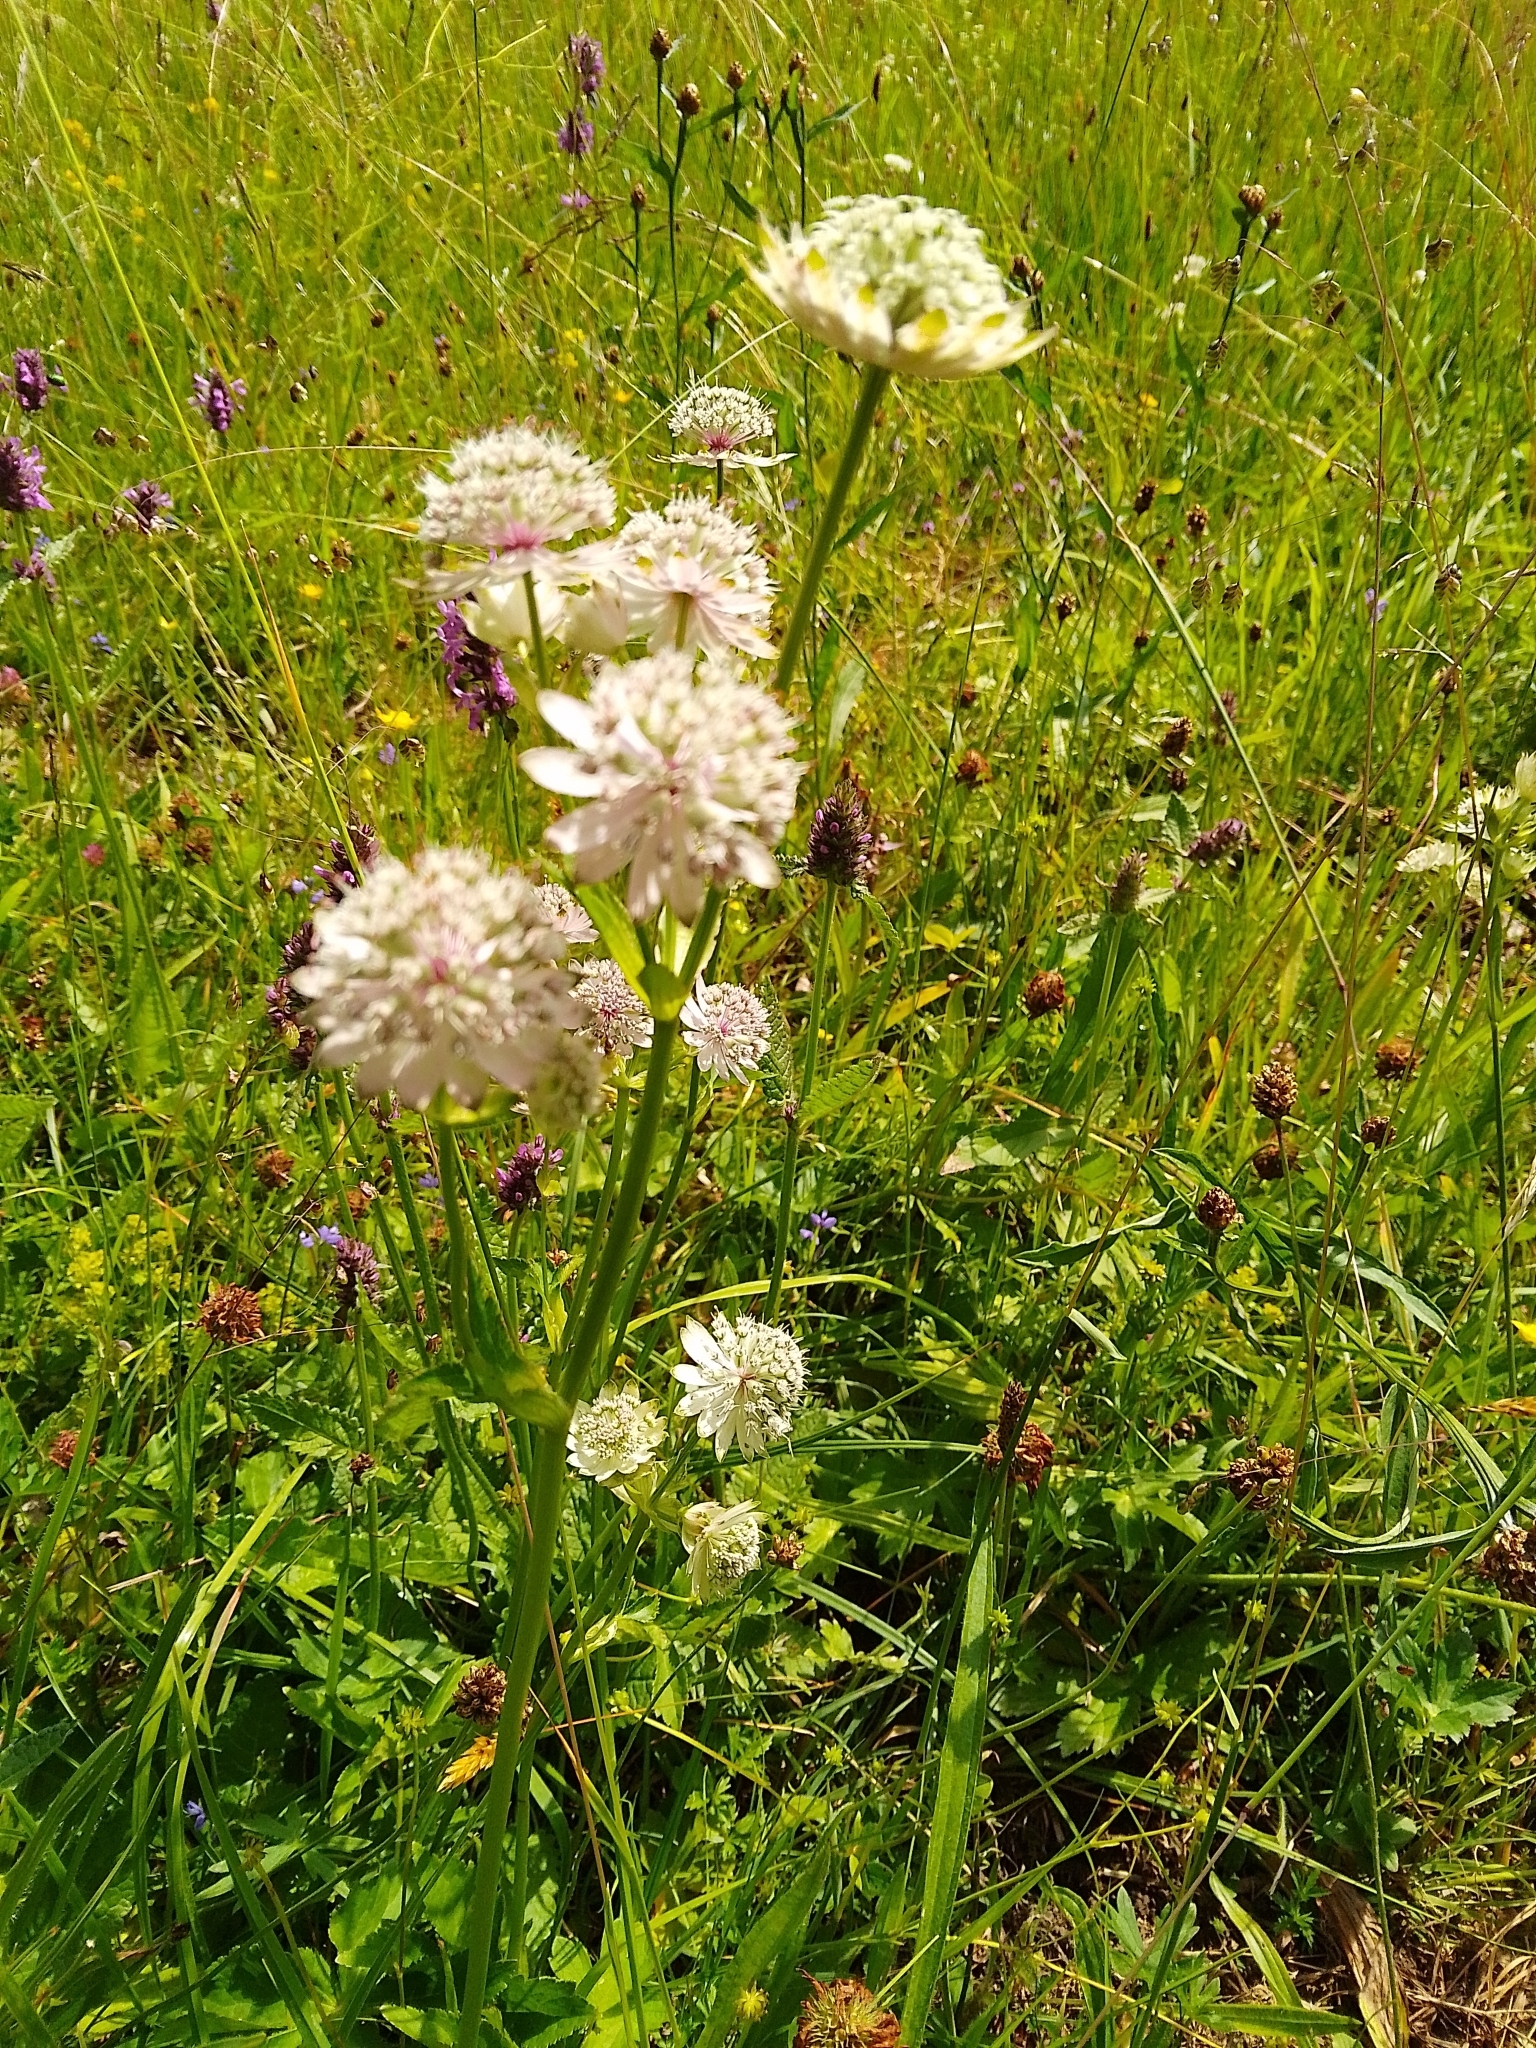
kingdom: Plantae
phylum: Tracheophyta
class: Magnoliopsida
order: Apiales
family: Apiaceae
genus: Astrantia
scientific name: Astrantia major
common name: Greater masterwort
